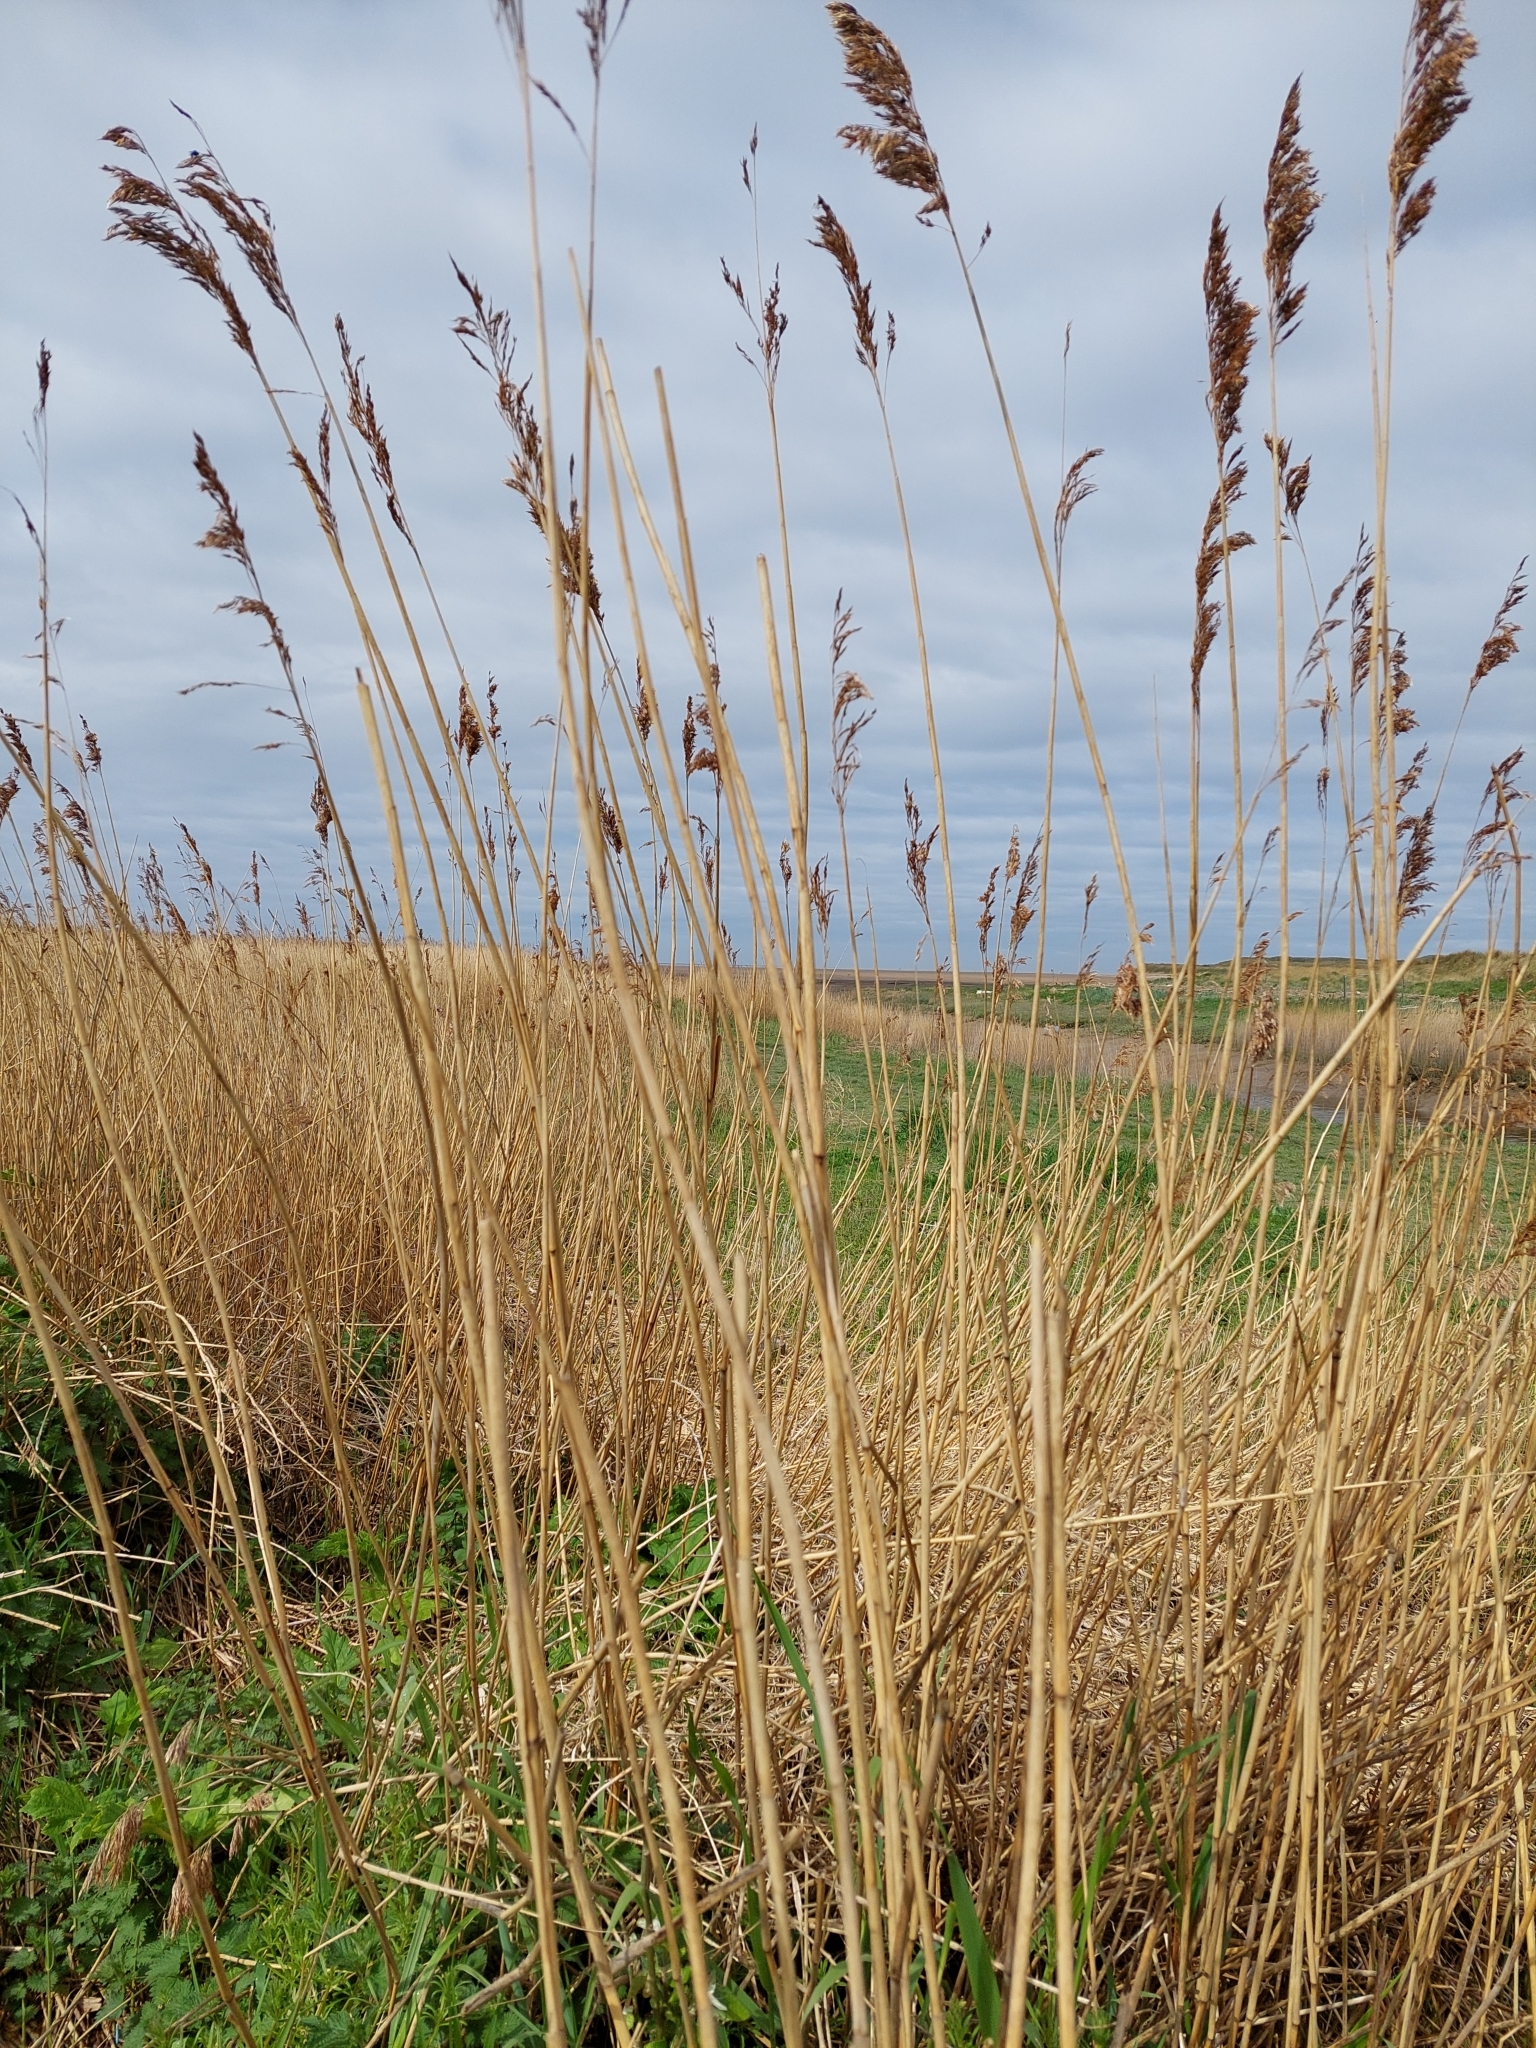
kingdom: Plantae
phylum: Tracheophyta
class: Liliopsida
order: Poales
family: Poaceae
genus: Phragmites
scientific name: Phragmites australis
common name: Common reed
